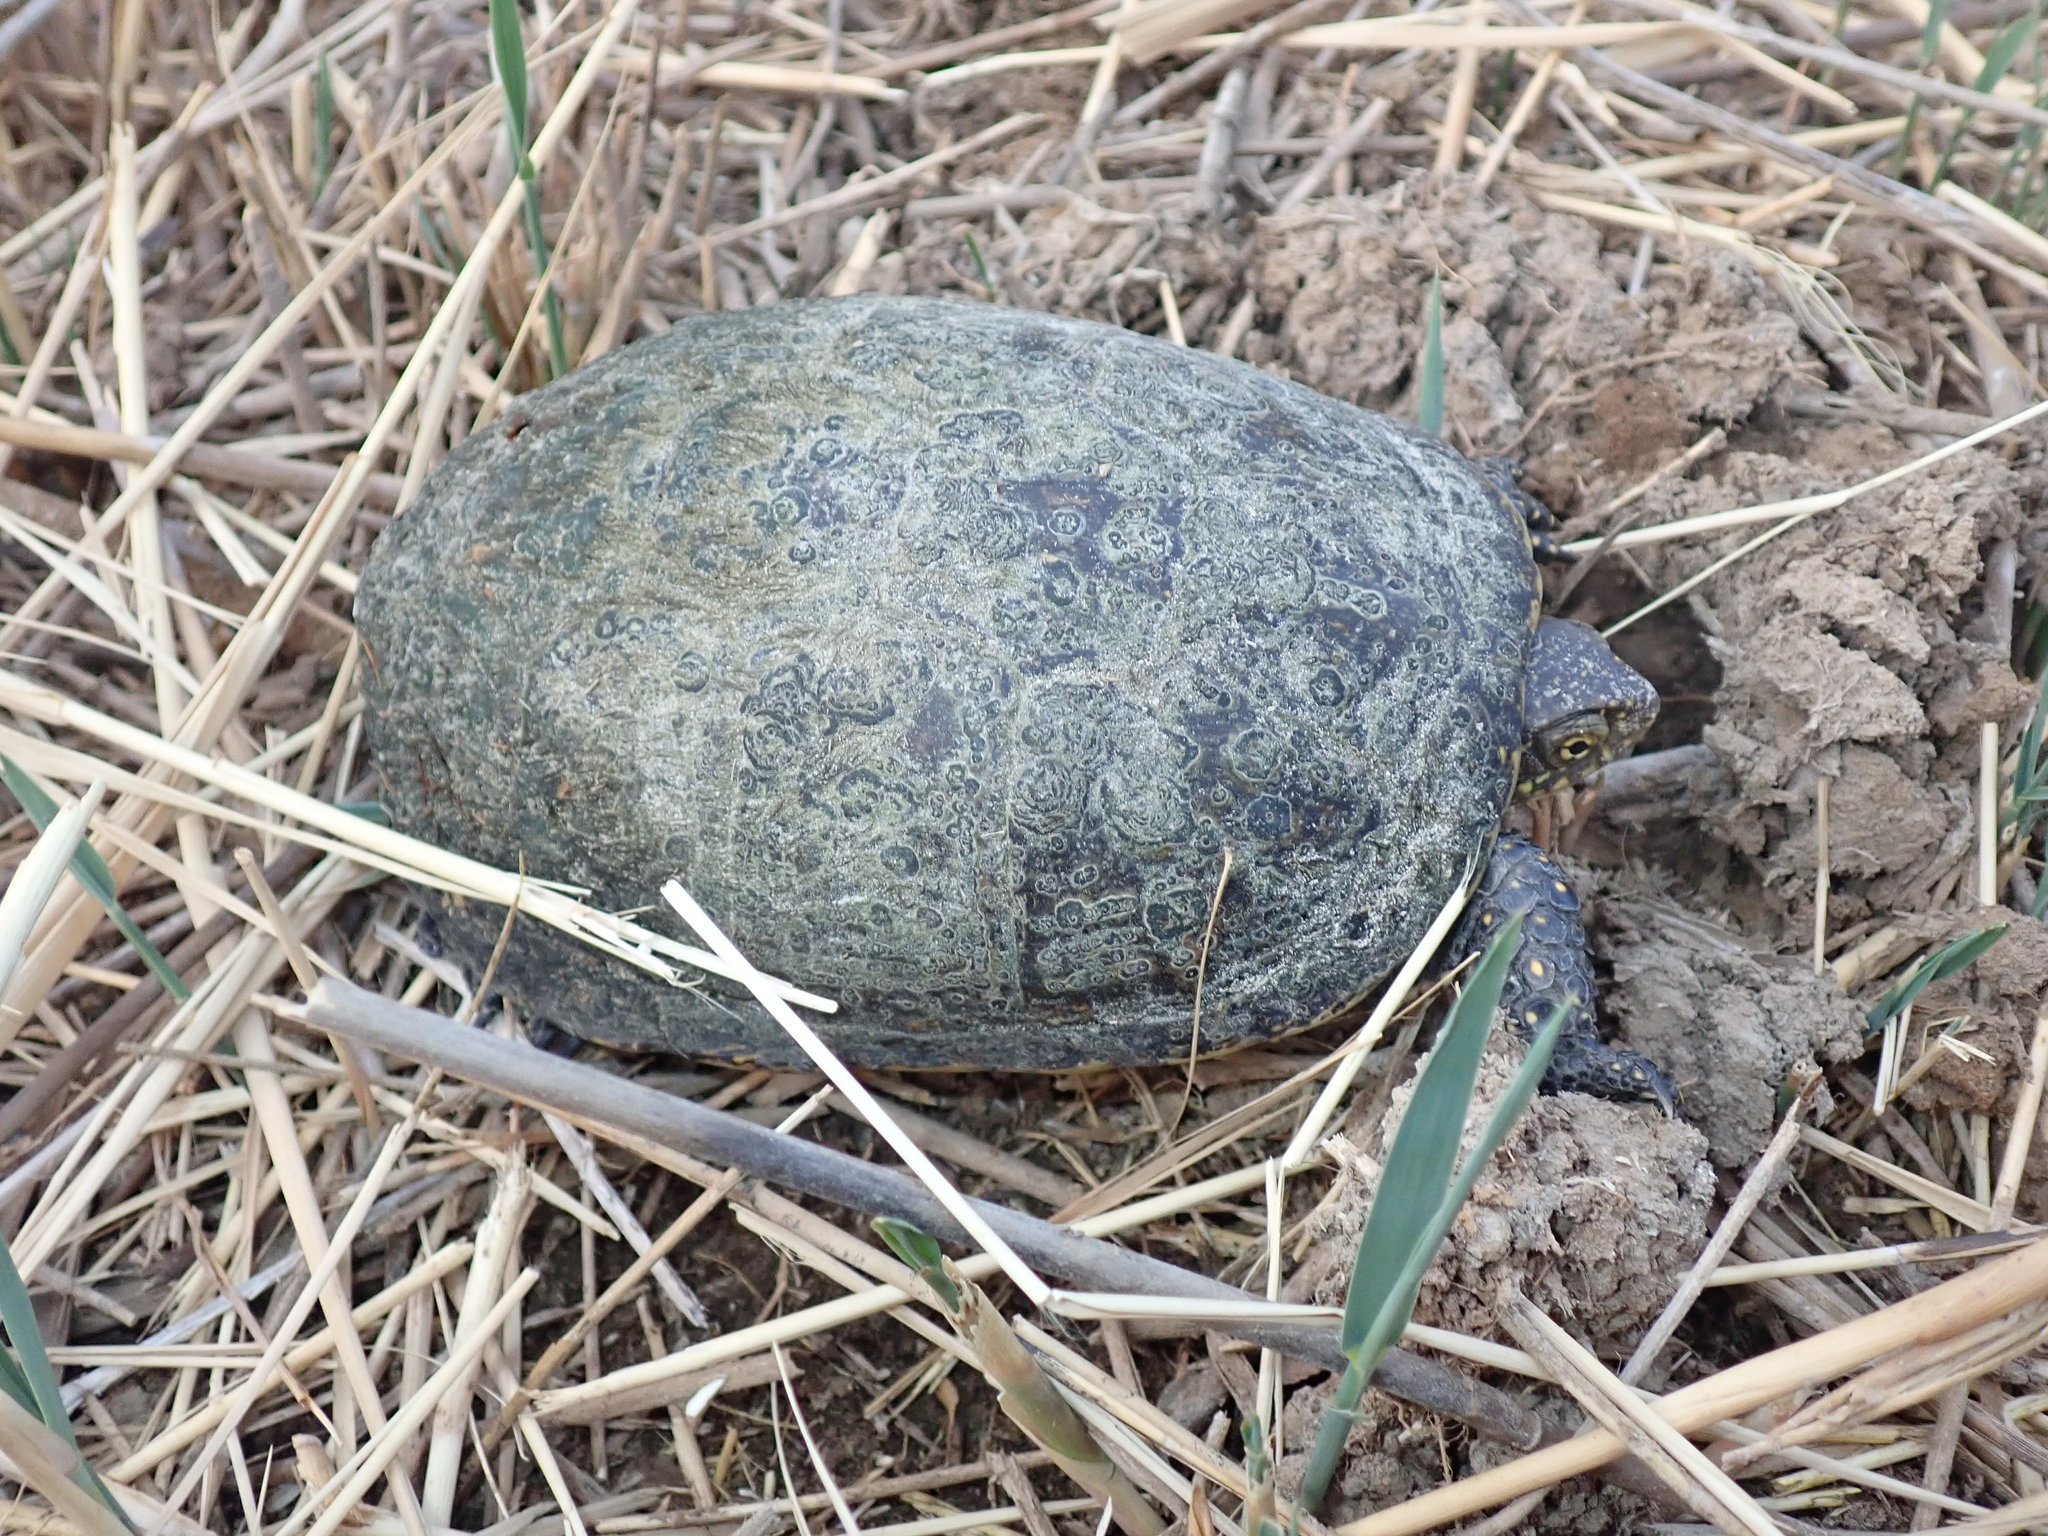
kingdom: Animalia
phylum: Chordata
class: Testudines
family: Emydidae
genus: Emys
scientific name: Emys orbicularis
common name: European pond turtle
